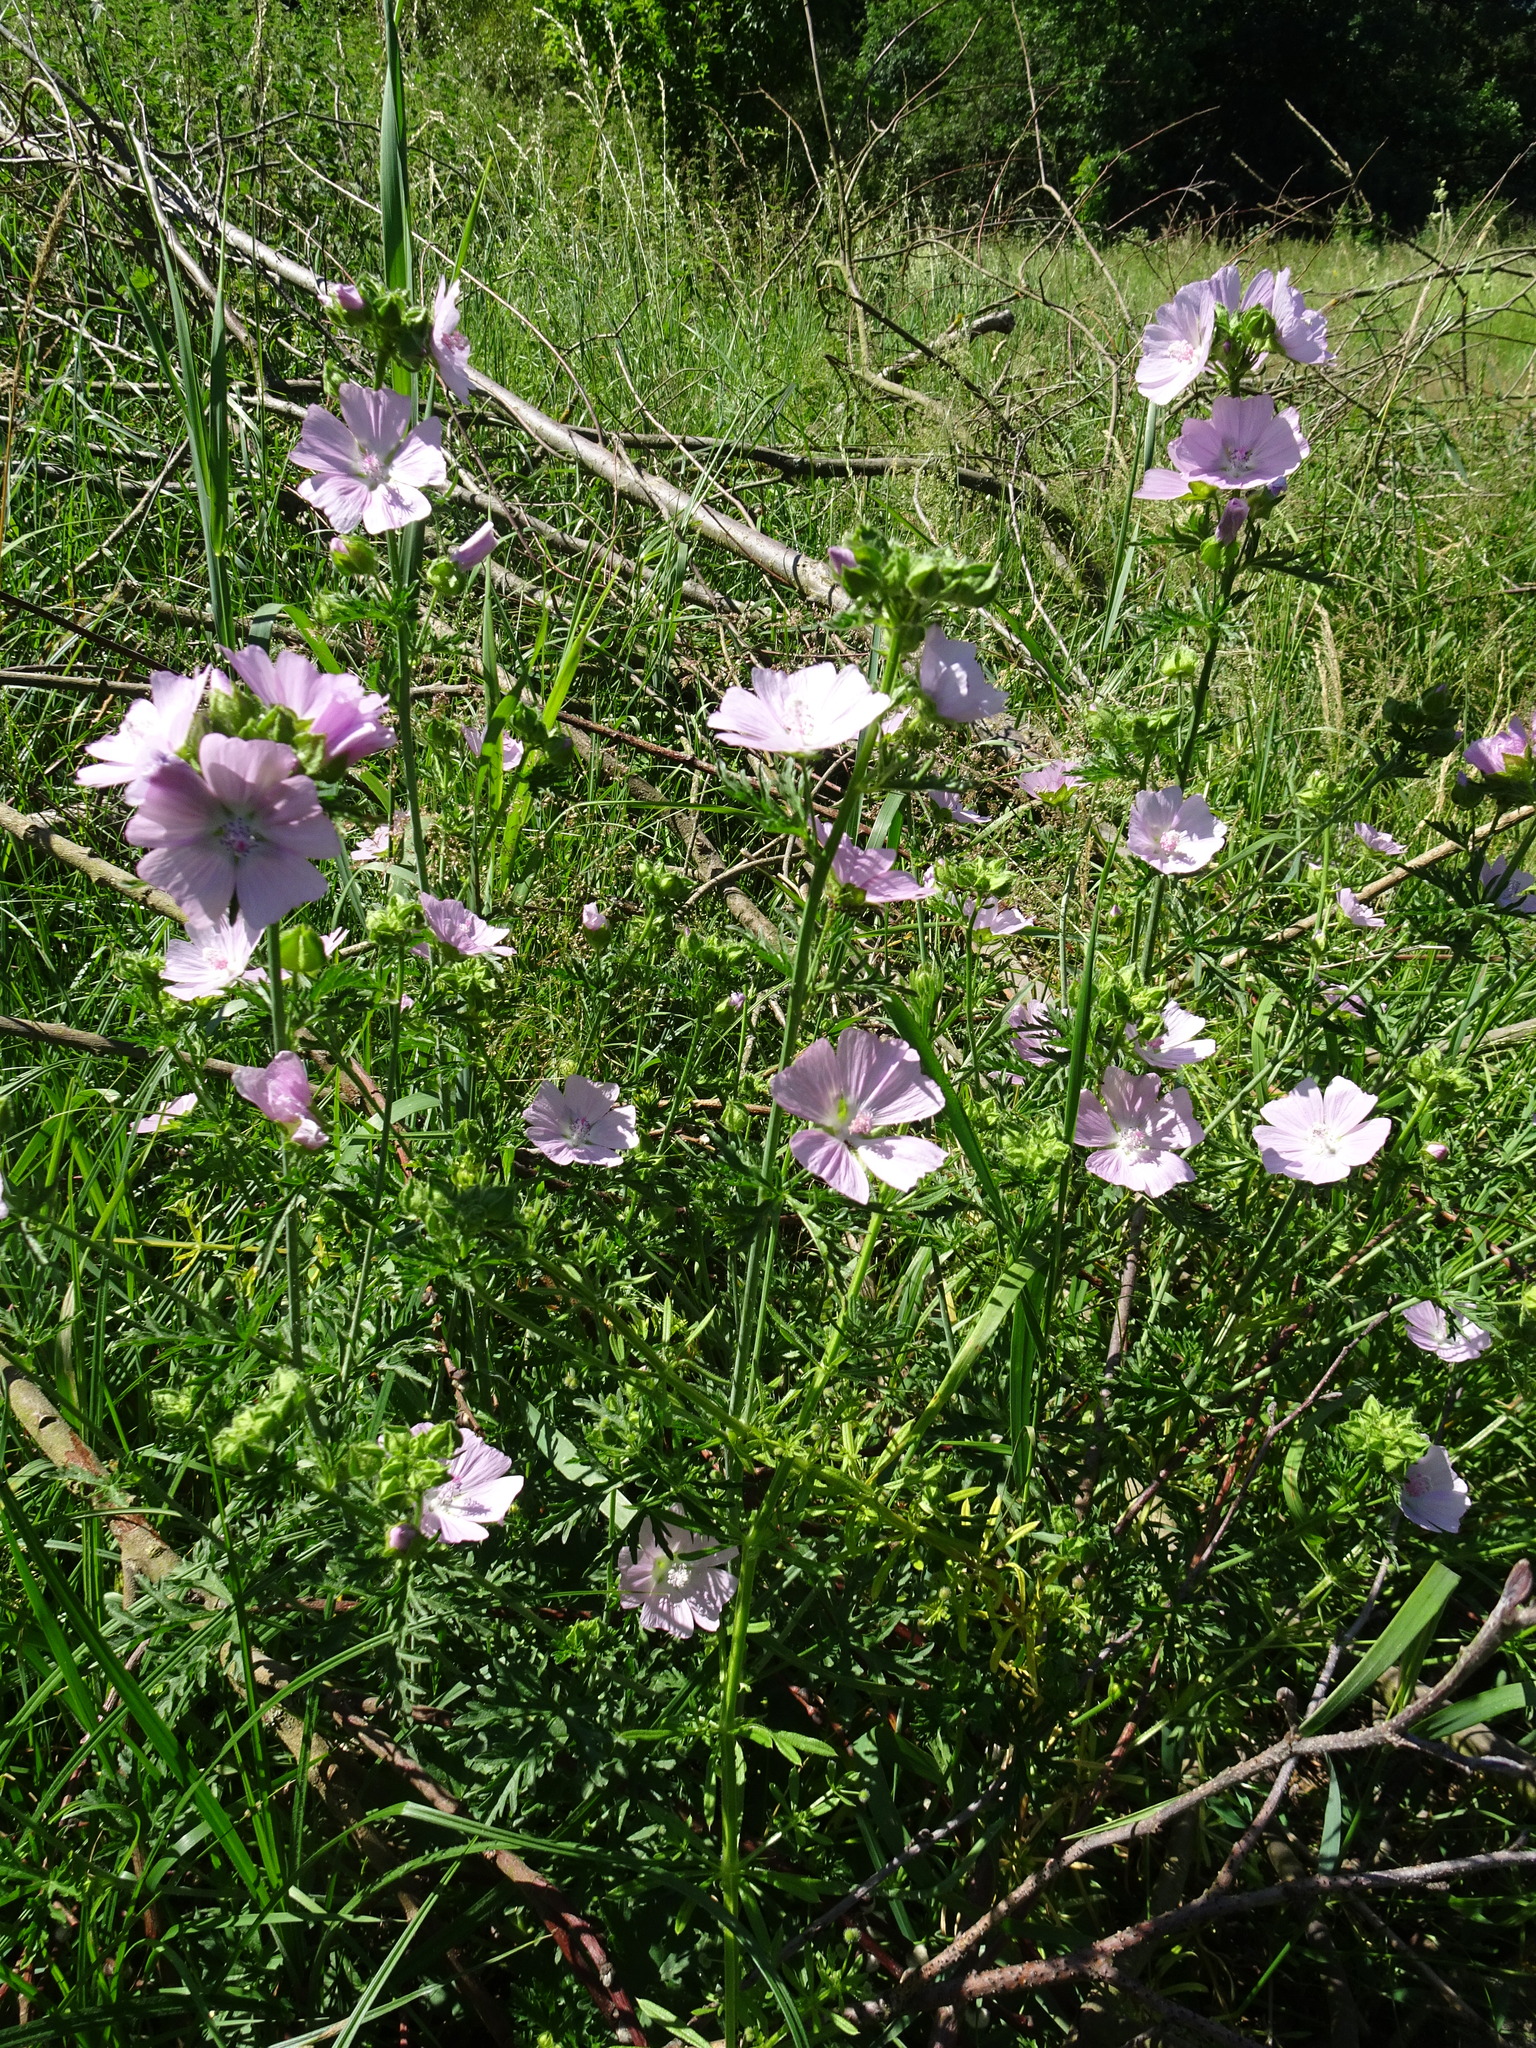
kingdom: Plantae
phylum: Tracheophyta
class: Magnoliopsida
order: Malvales
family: Malvaceae
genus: Malva
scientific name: Malva moschata
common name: Musk mallow
